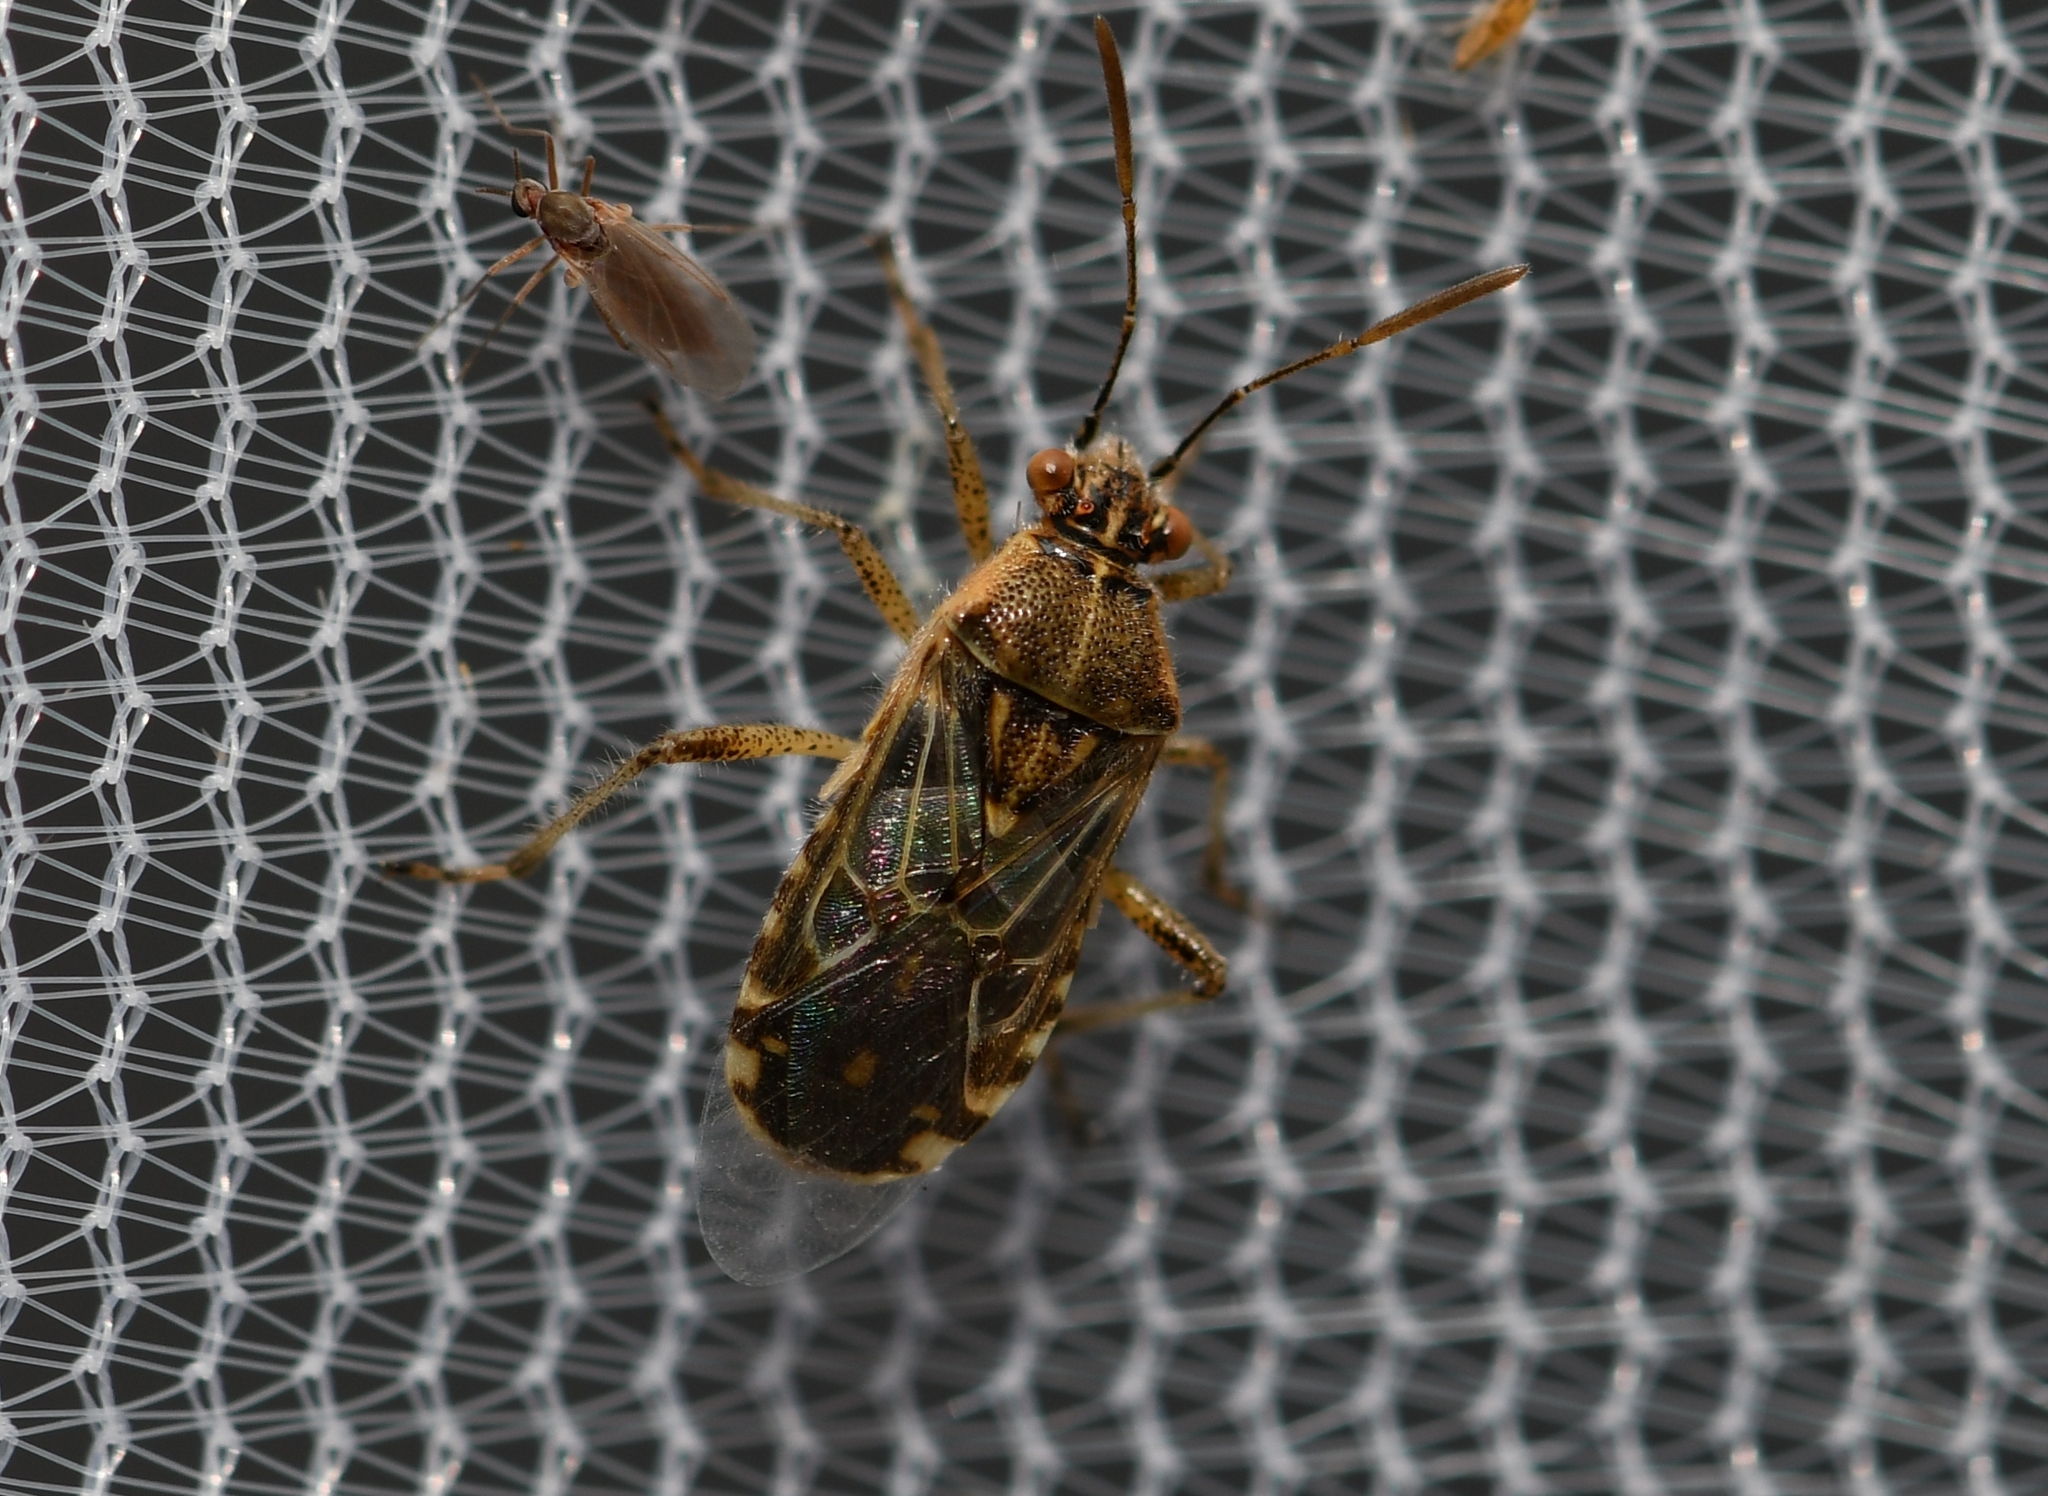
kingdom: Animalia
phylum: Arthropoda
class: Insecta
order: Hemiptera
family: Rhopalidae
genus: Liorhyssus
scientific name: Liorhyssus hyalinus
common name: Scentless plant bug
